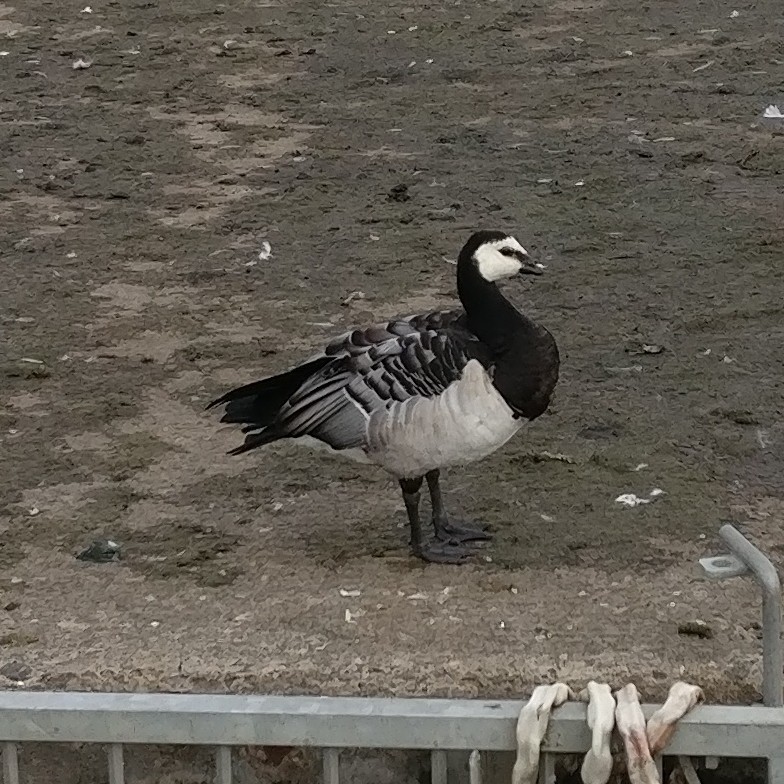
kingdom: Animalia
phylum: Chordata
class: Aves
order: Anseriformes
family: Anatidae
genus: Branta
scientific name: Branta leucopsis
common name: Barnacle goose
